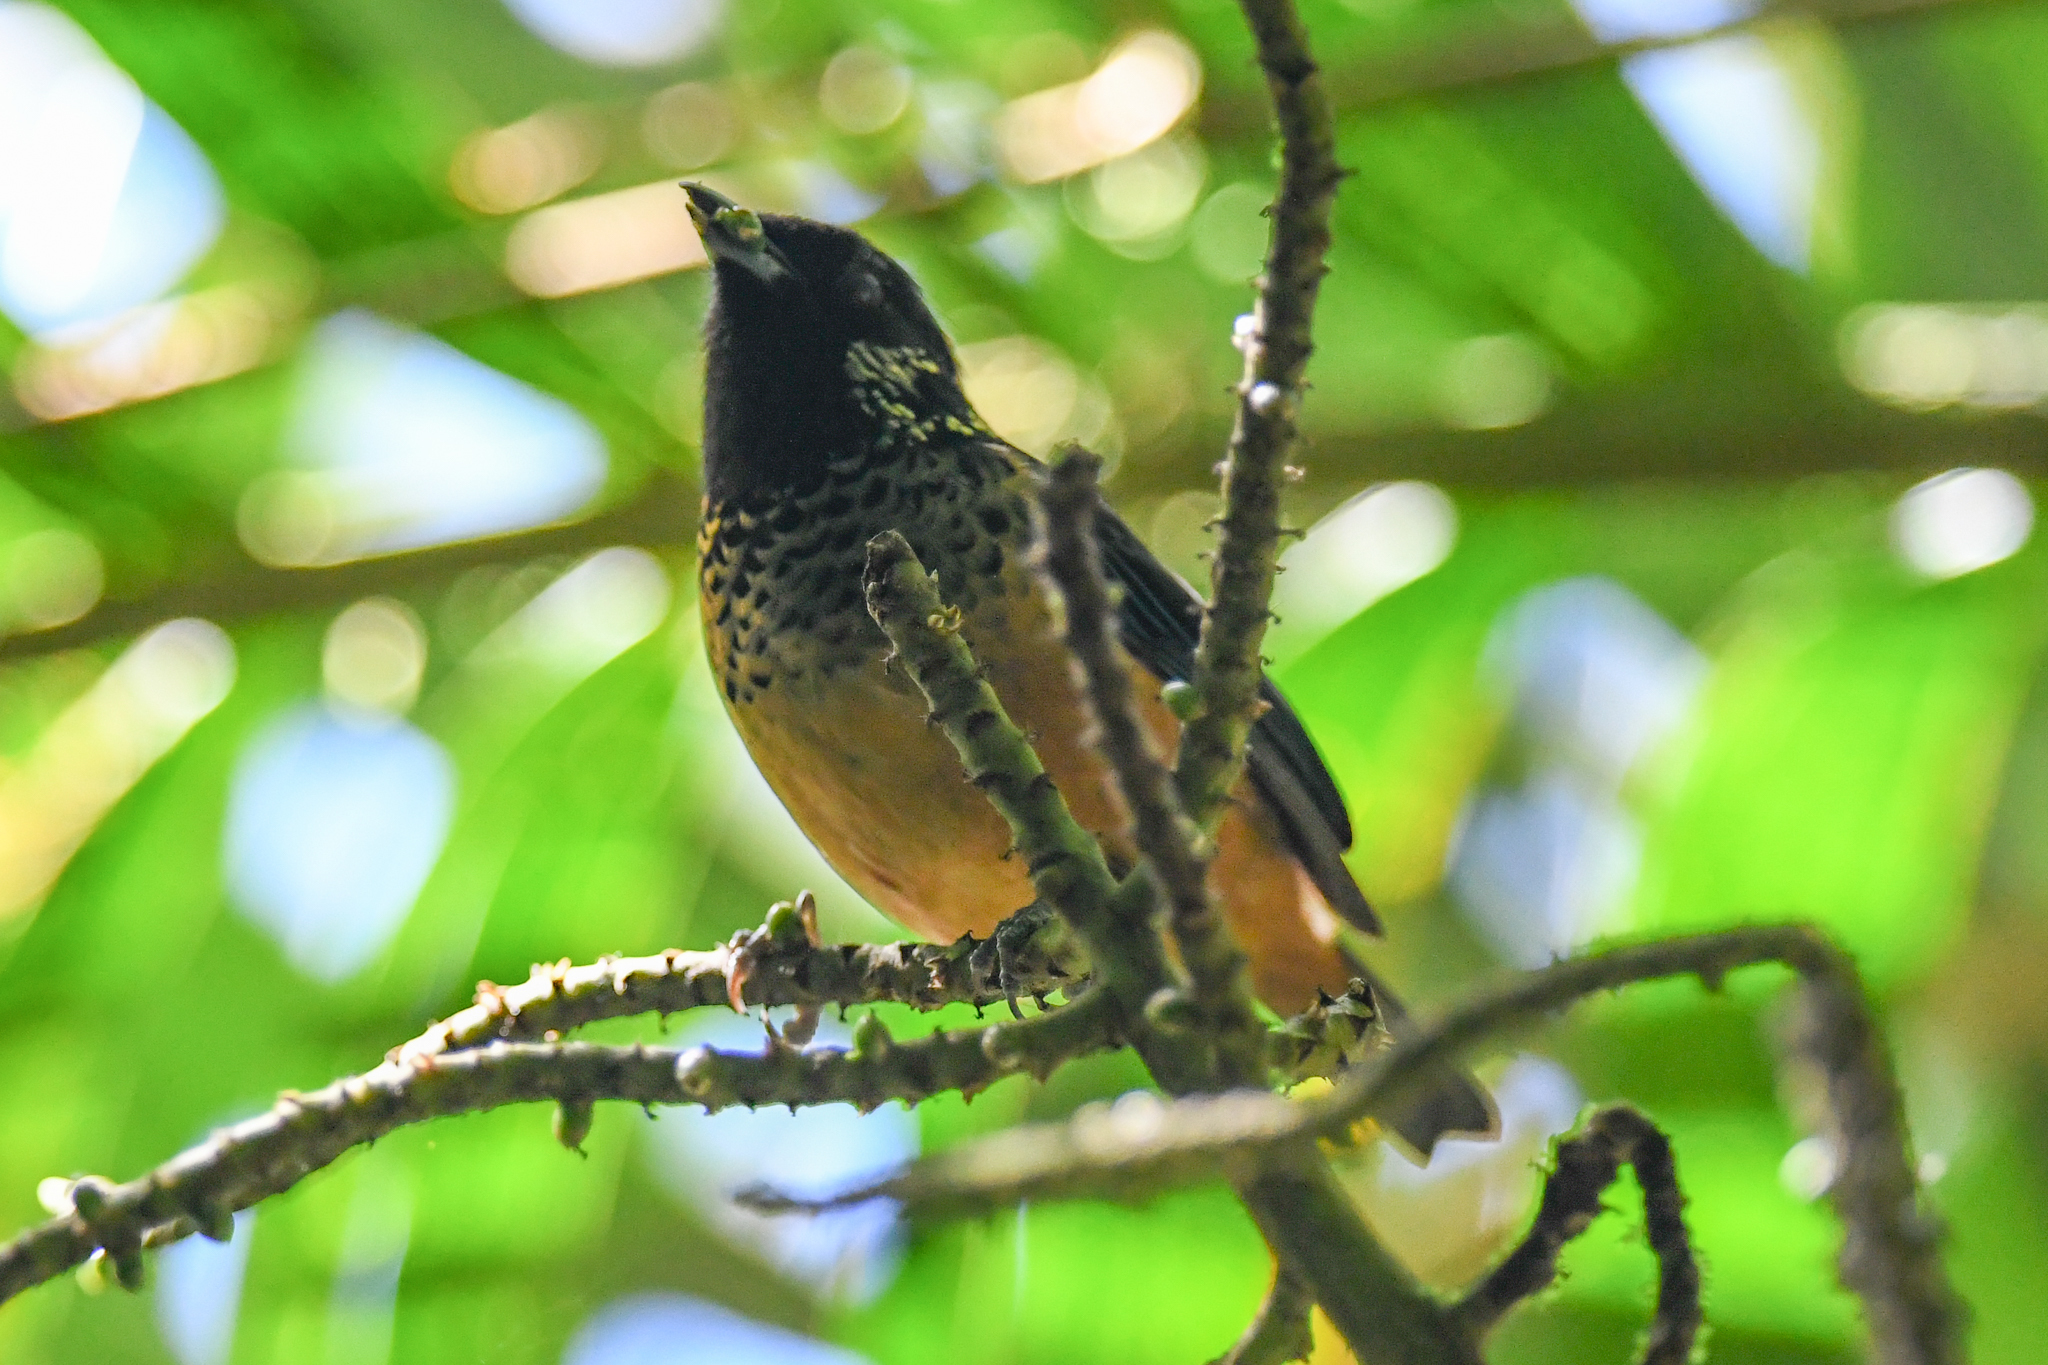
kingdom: Animalia
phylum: Chordata
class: Aves
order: Passeriformes
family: Thraupidae
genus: Tangara
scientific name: Tangara dowii
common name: Spangle-cheeked tanager
